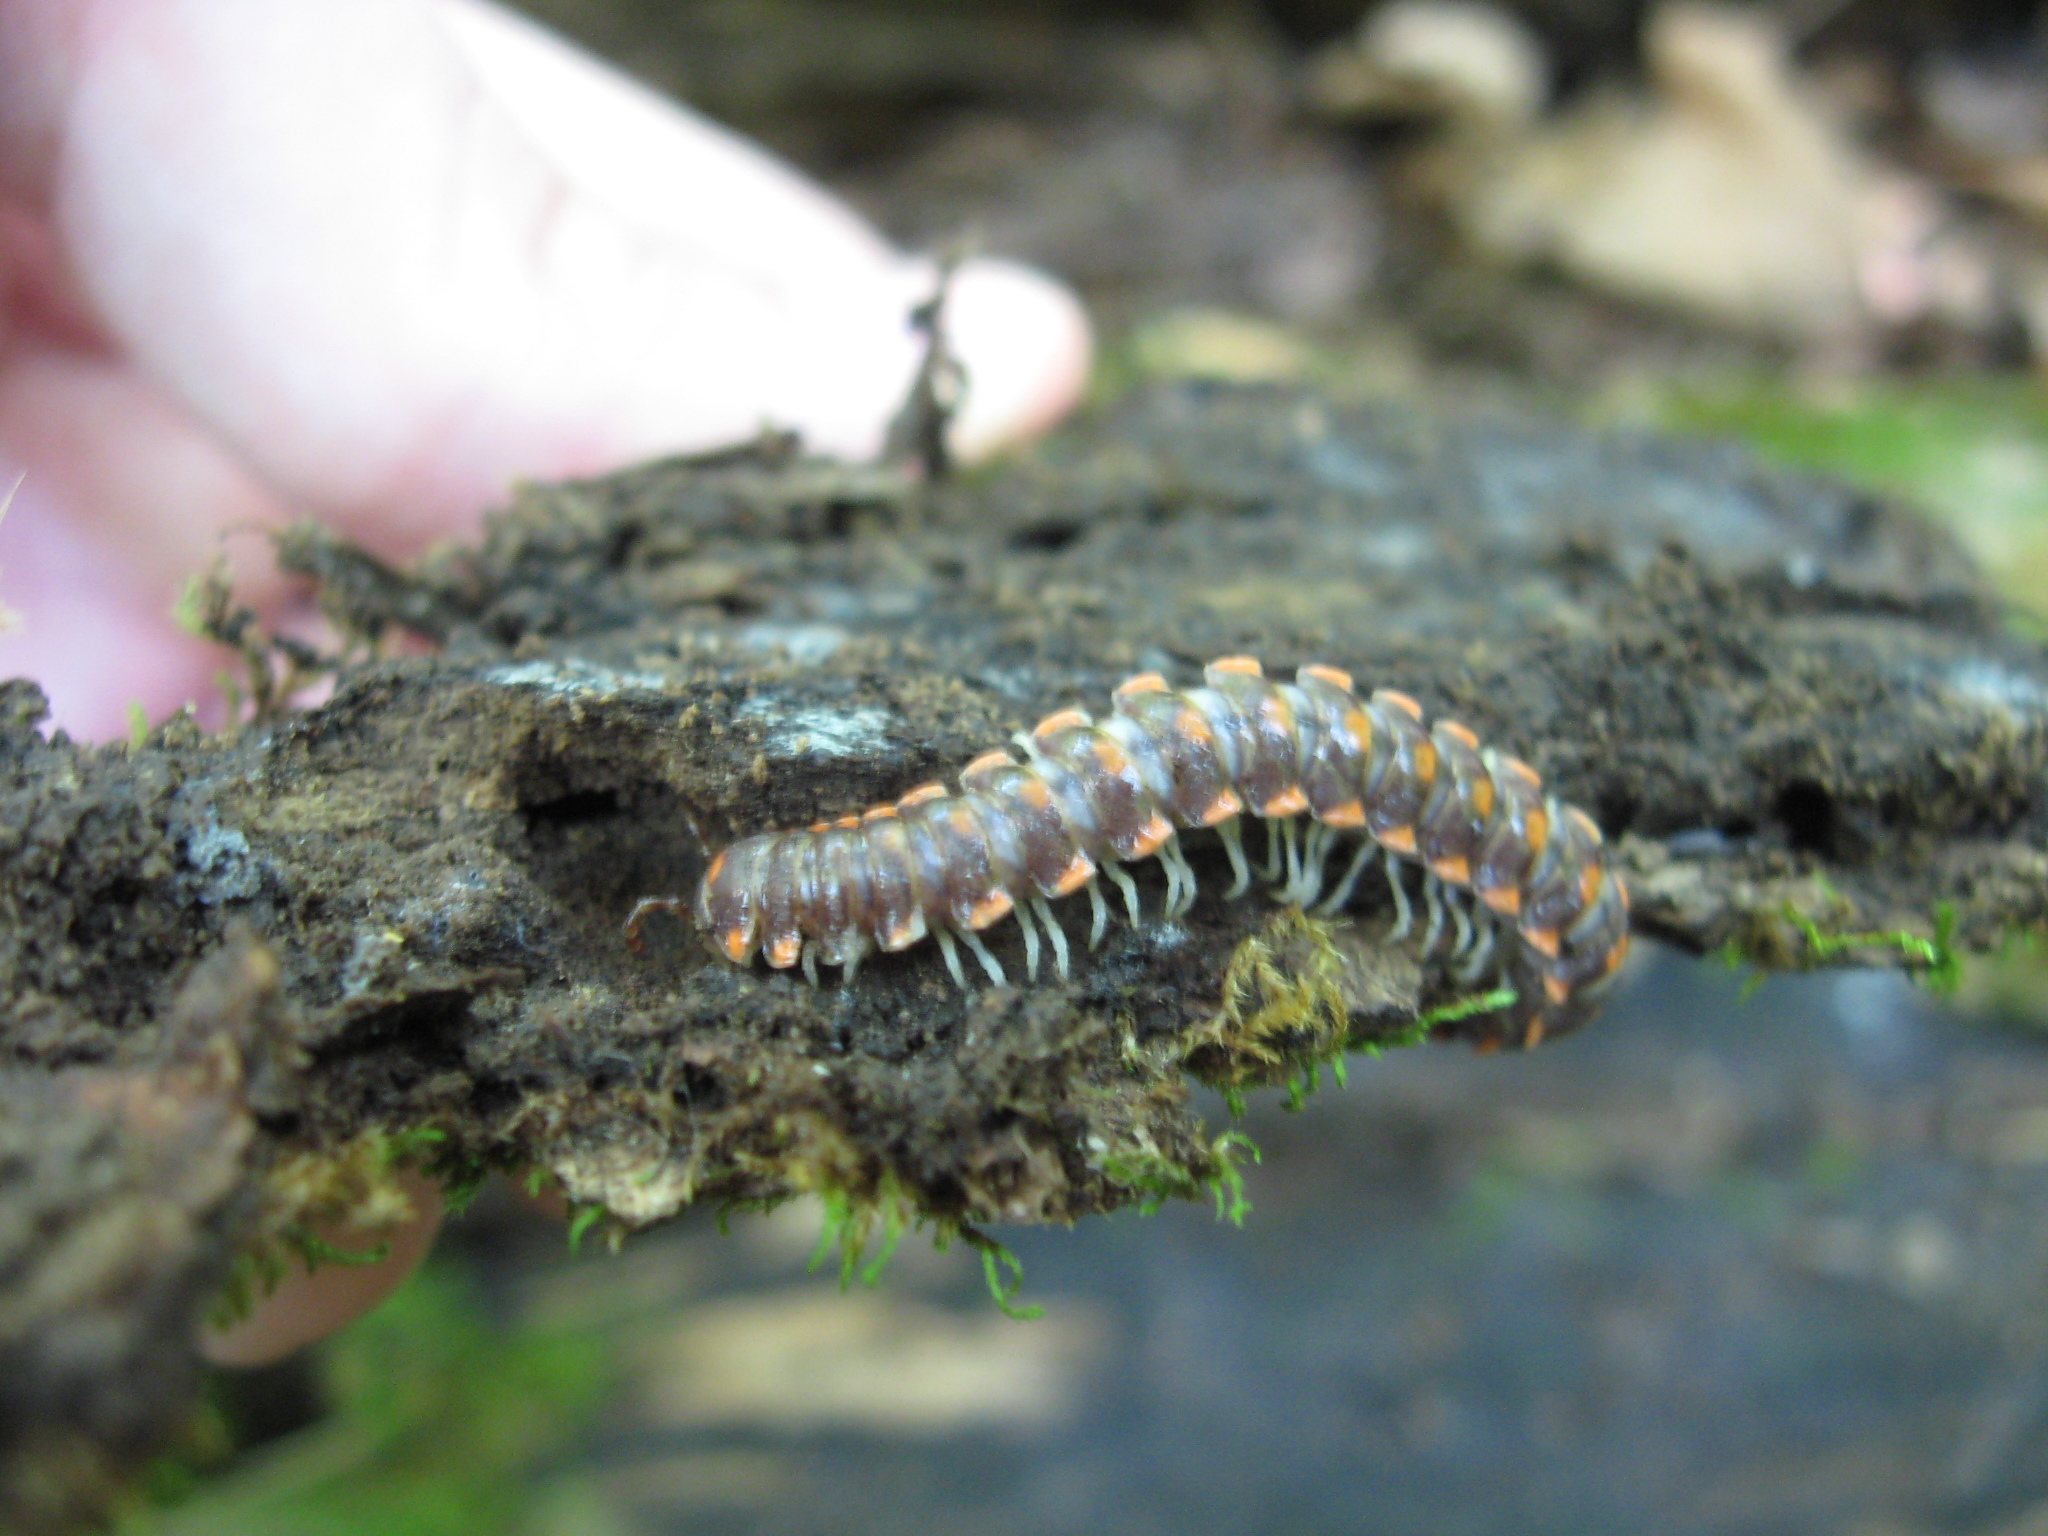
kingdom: Animalia
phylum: Arthropoda
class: Diplopoda
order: Polydesmida
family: Xystodesmidae
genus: Euryurus
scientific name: Euryurus leachii
